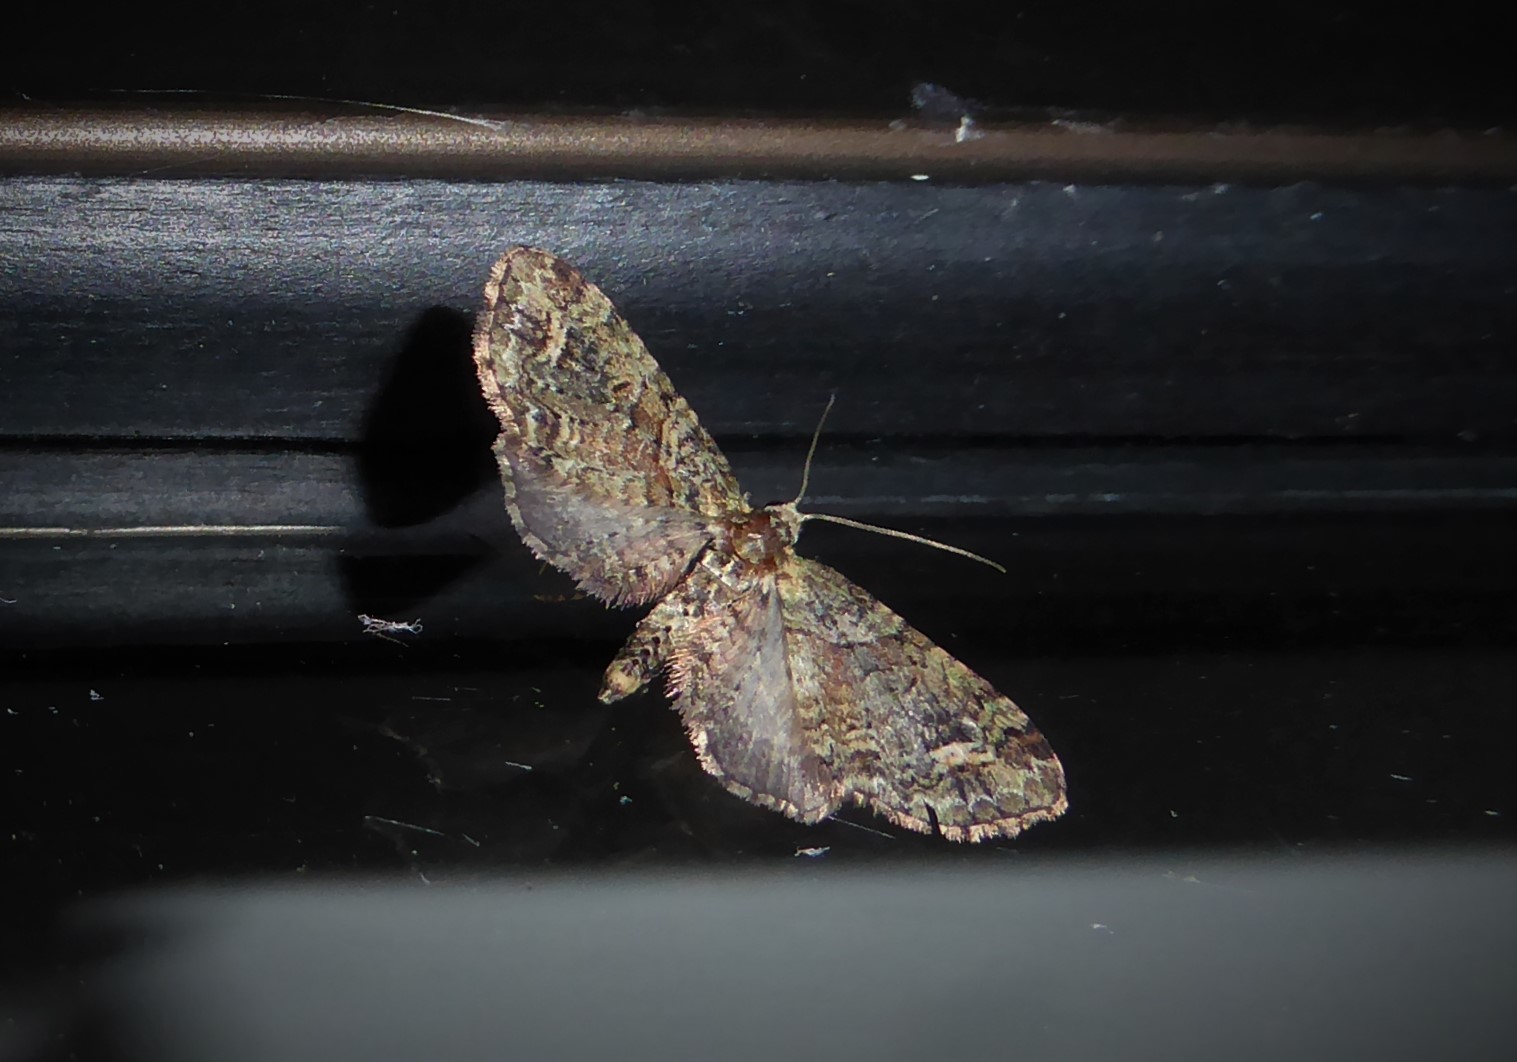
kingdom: Animalia
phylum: Arthropoda
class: Insecta
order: Lepidoptera
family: Geometridae
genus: Idaea
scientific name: Idaea mutanda
